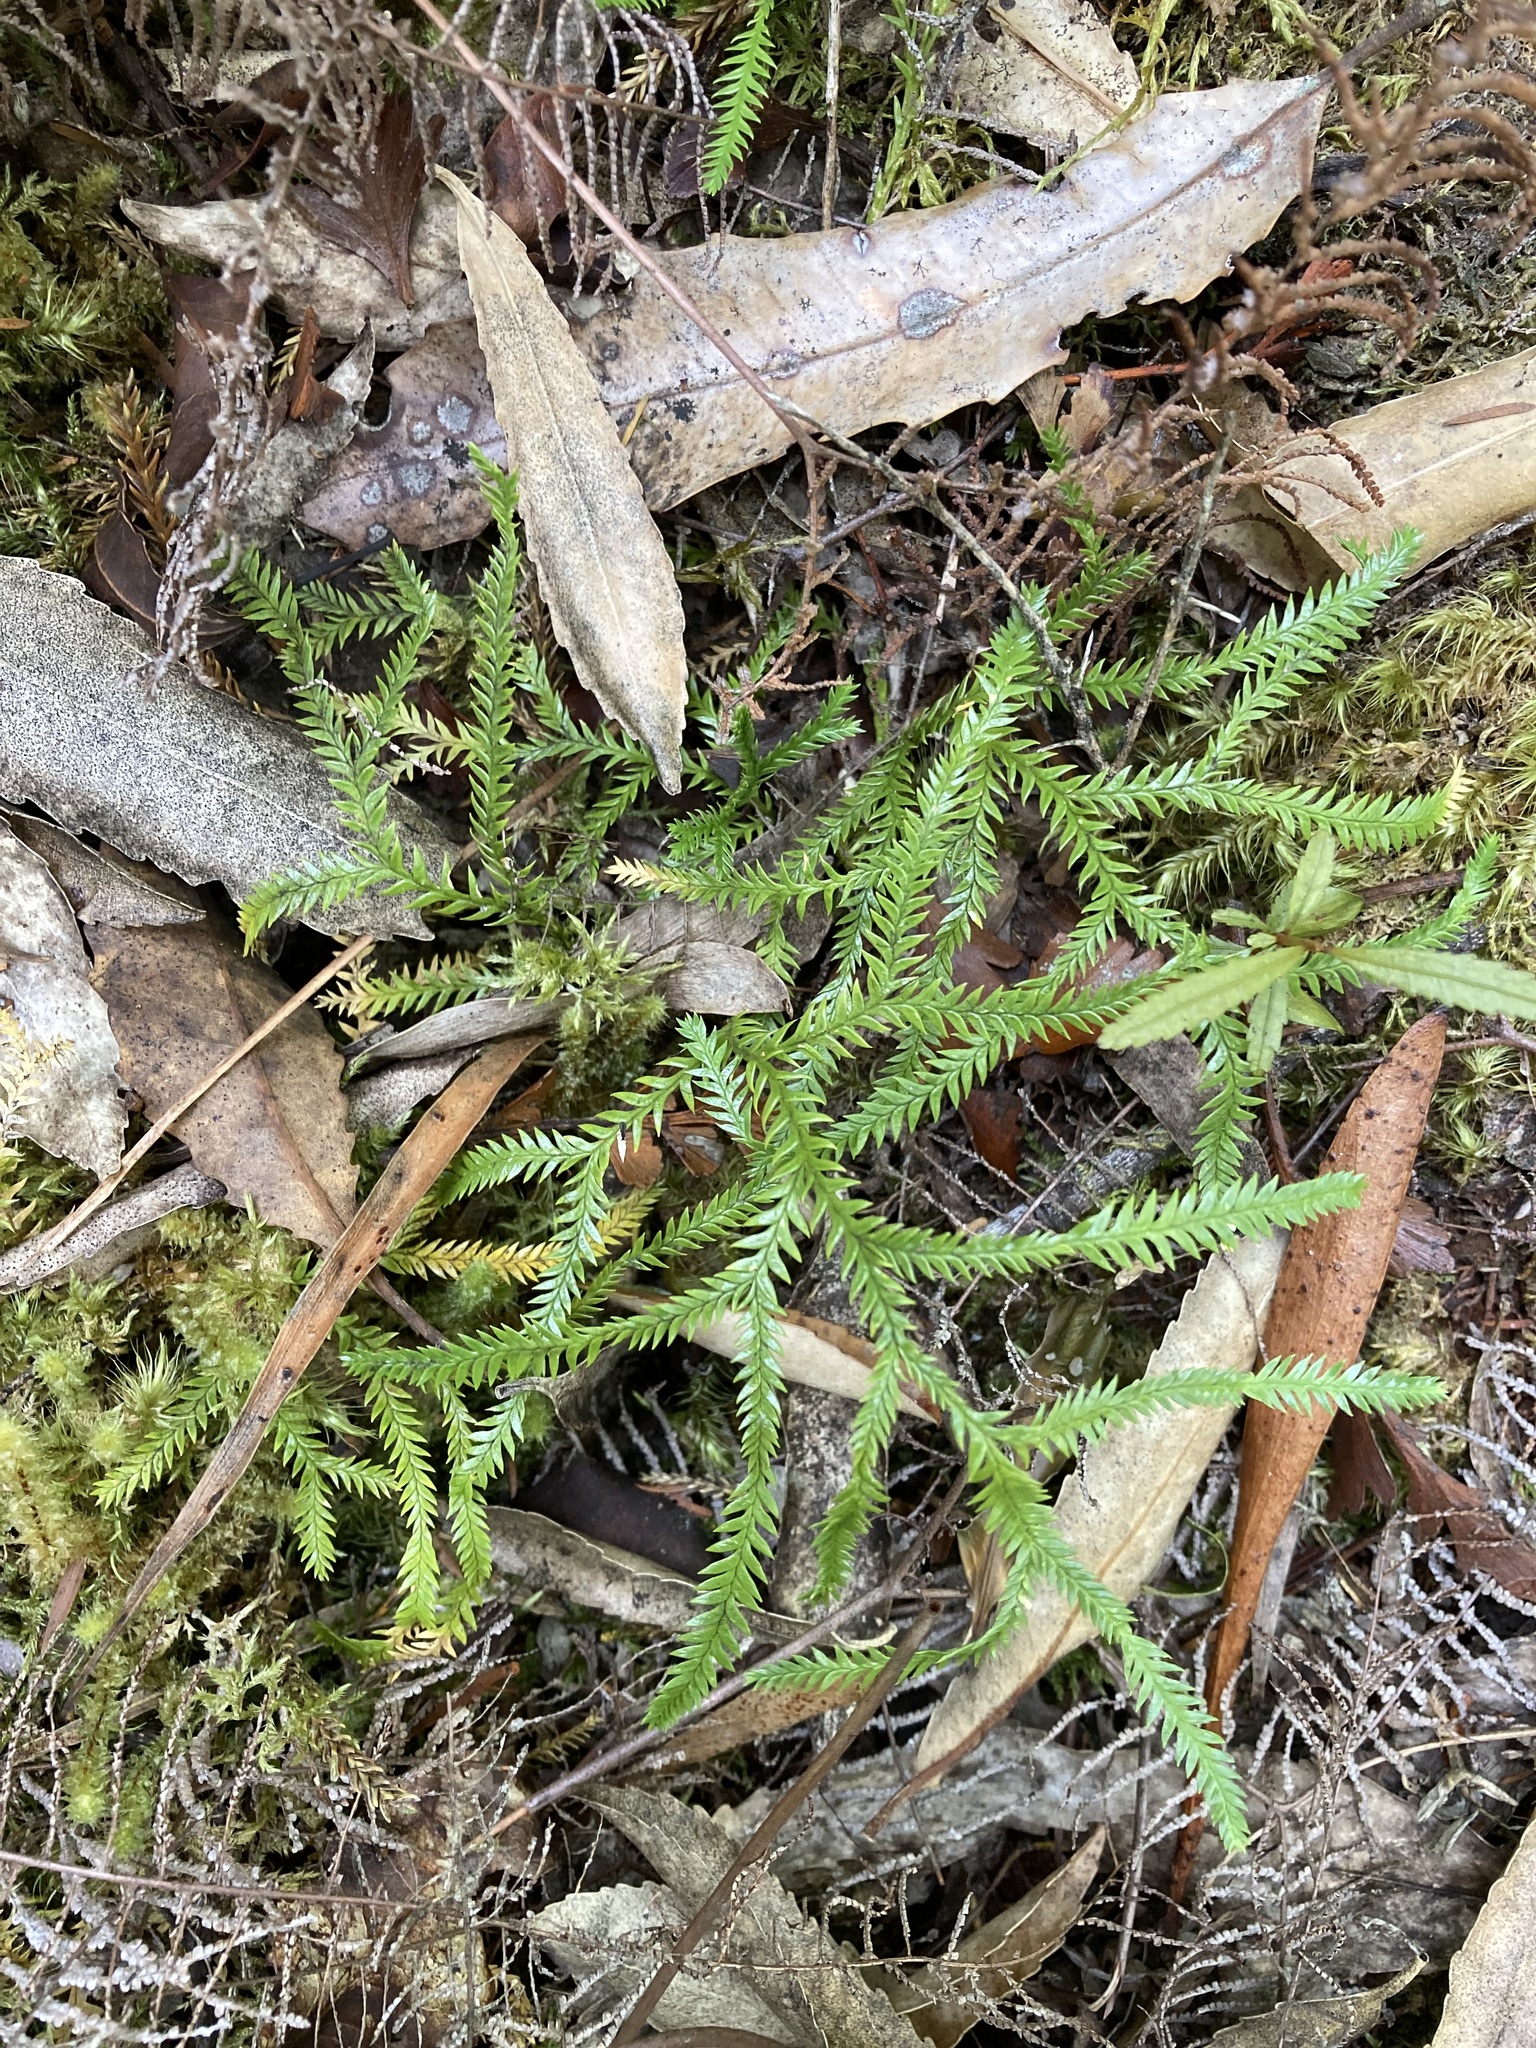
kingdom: Plantae
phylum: Tracheophyta
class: Lycopodiopsida
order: Lycopodiales
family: Lycopodiaceae
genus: Lycopodium
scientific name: Lycopodium volubile
